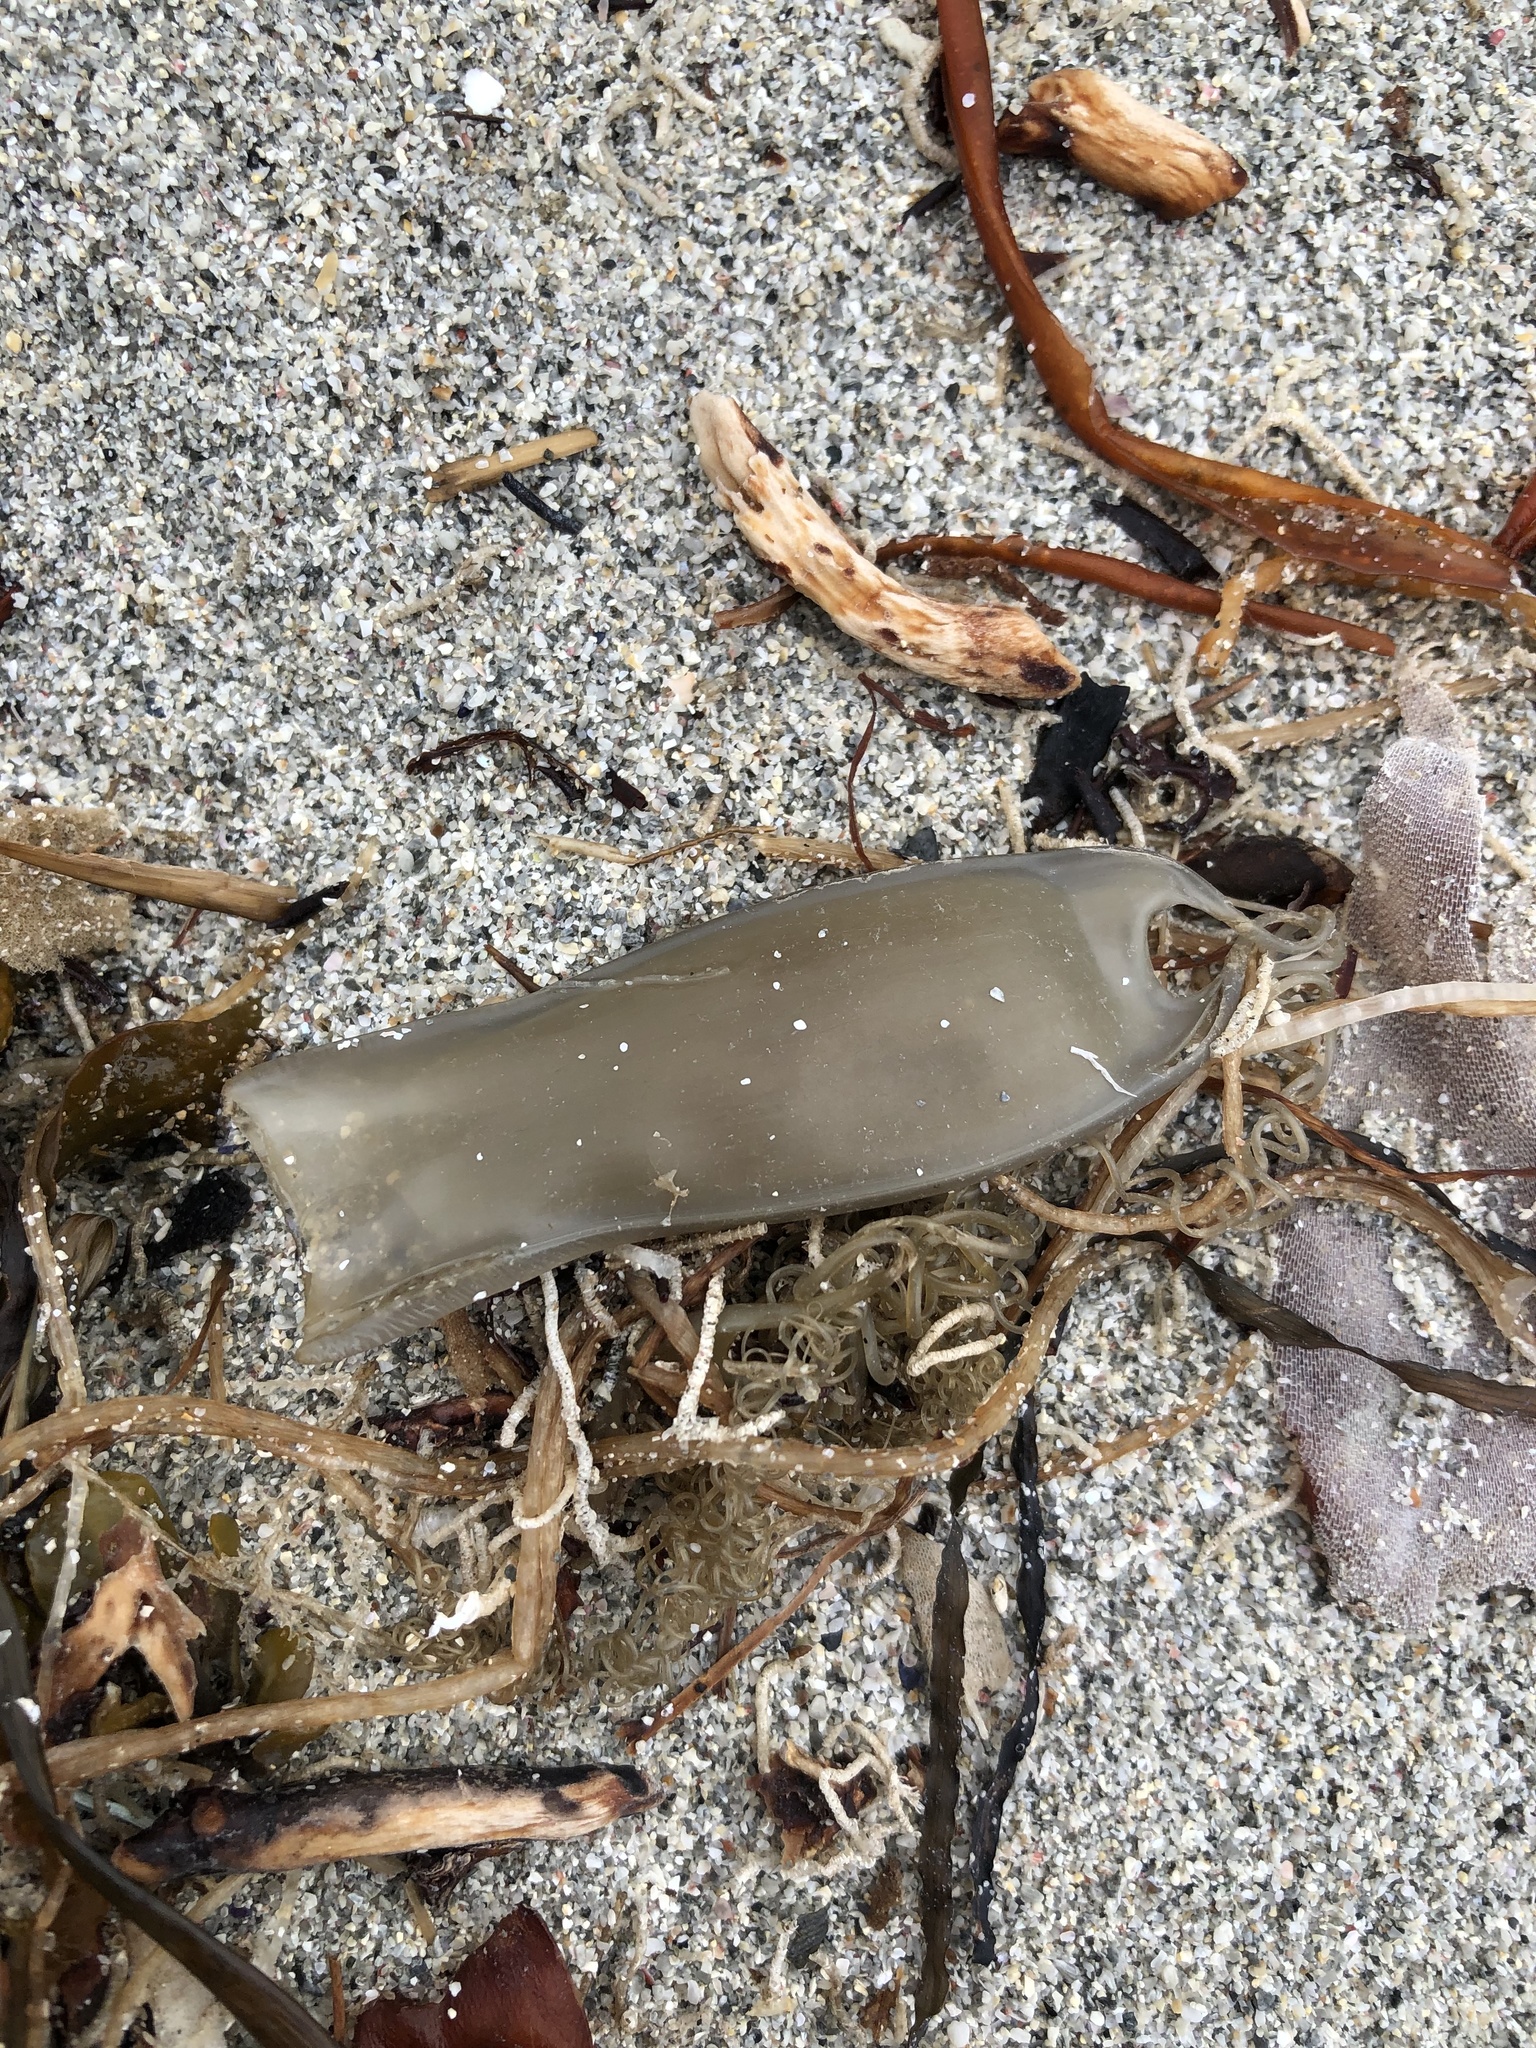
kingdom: Animalia
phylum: Chordata
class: Elasmobranchii
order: Carcharhiniformes
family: Scyliorhinidae
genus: Scyliorhinus
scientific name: Scyliorhinus canicula
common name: Lesser spotted dogfish
